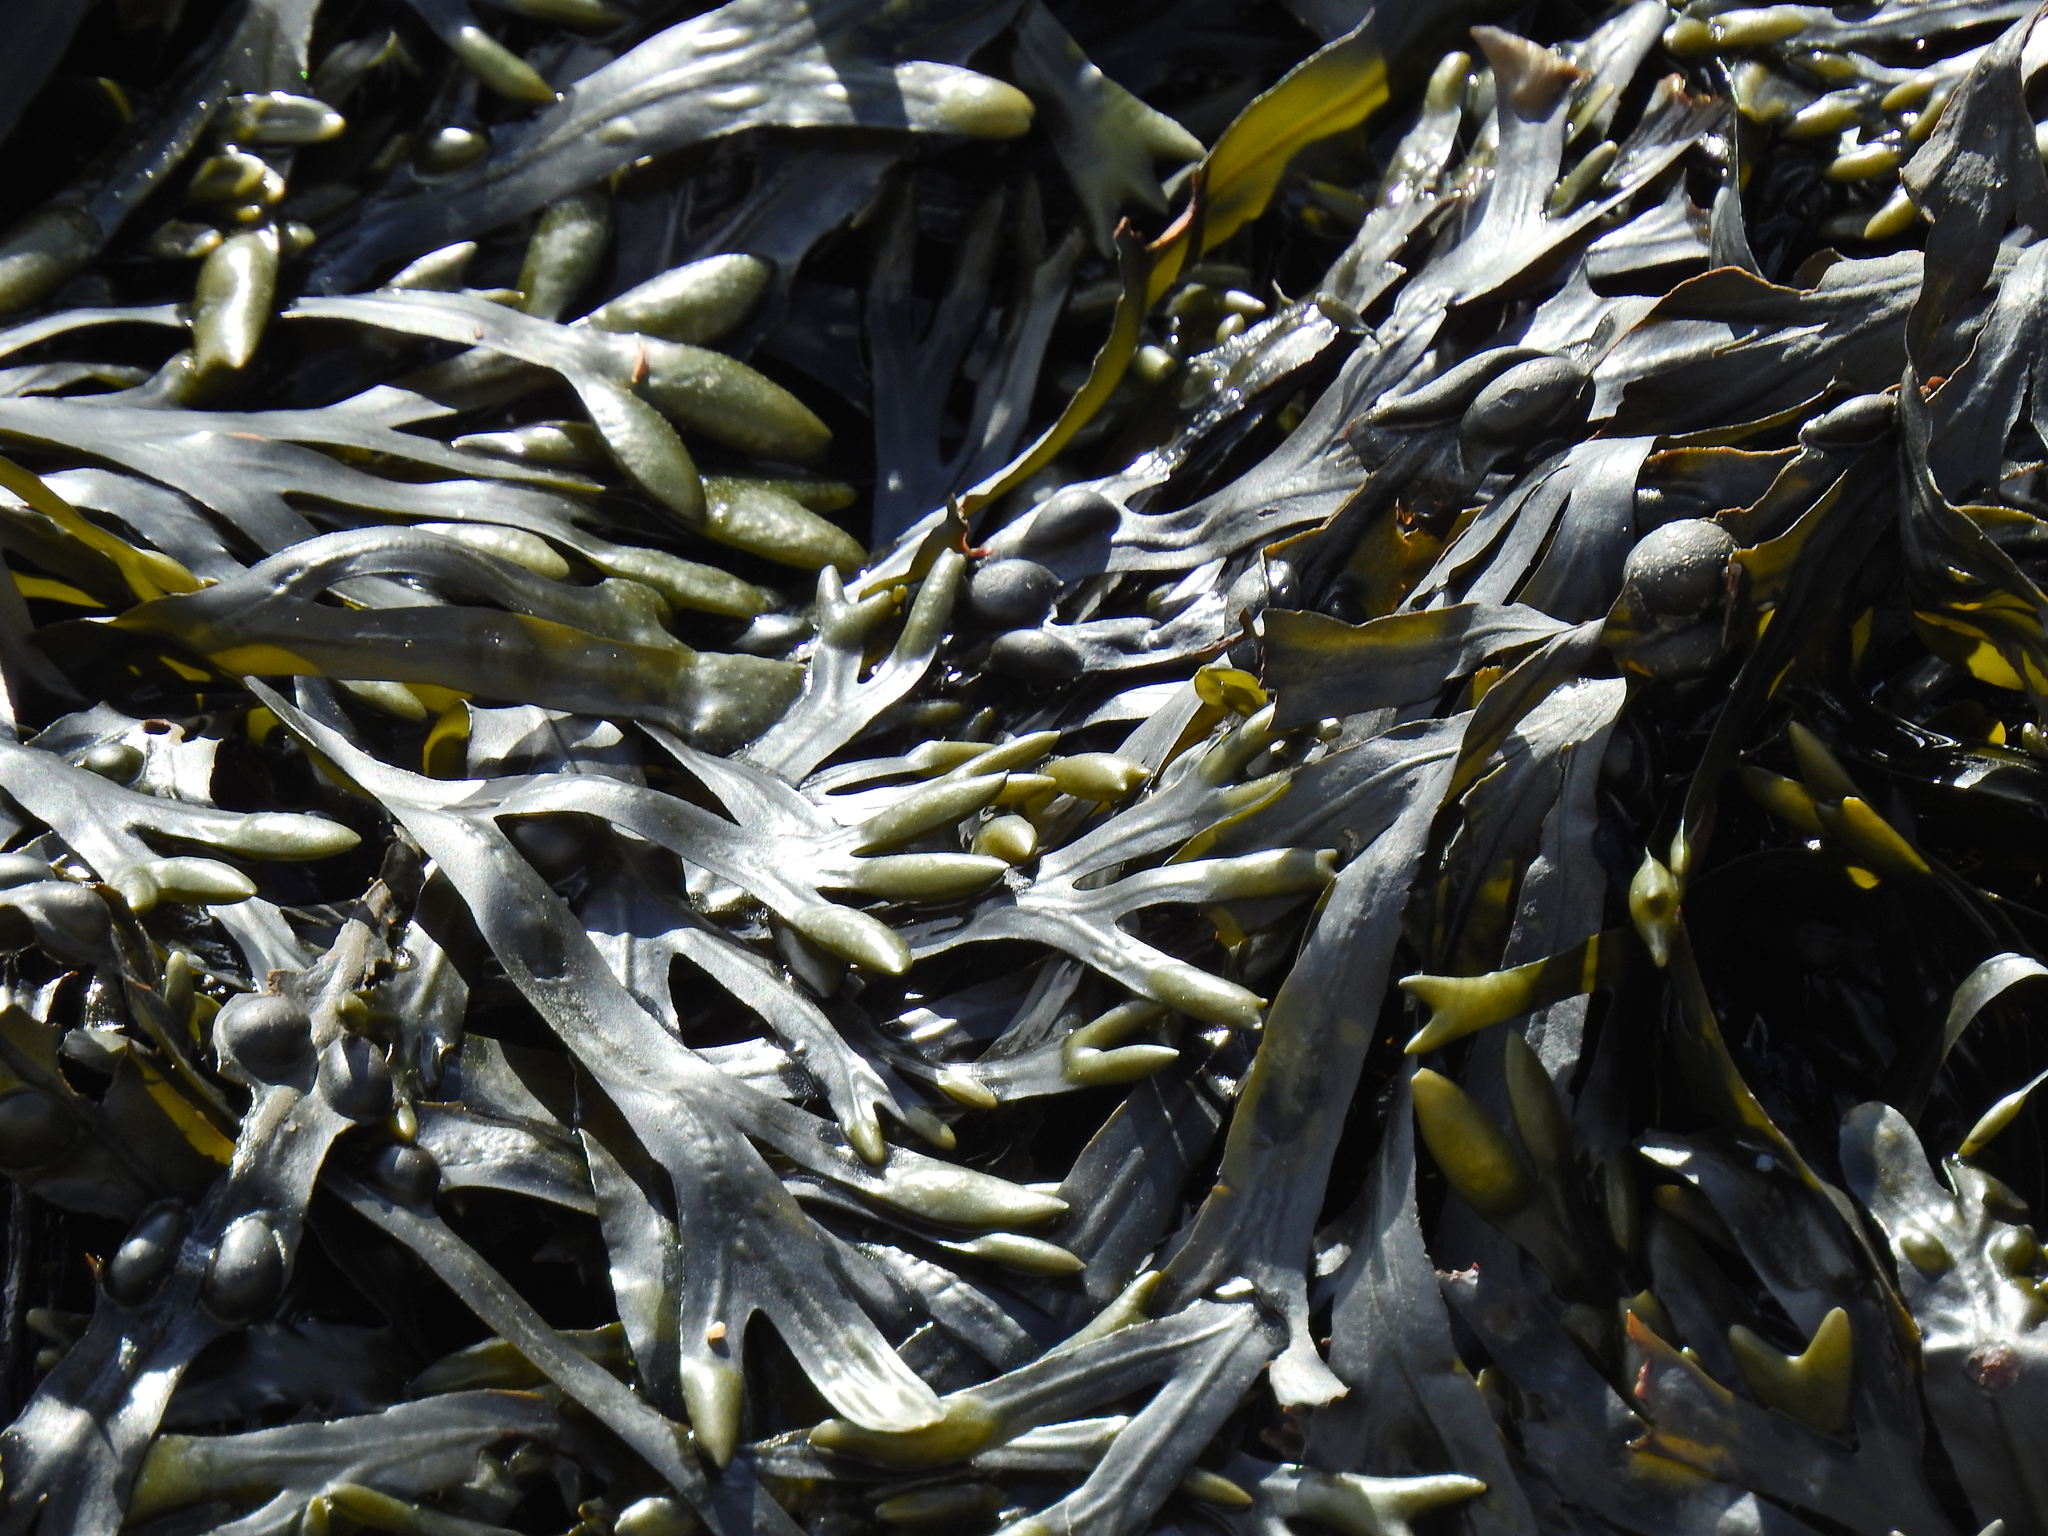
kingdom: Chromista
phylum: Ochrophyta
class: Phaeophyceae
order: Fucales
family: Fucaceae
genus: Fucus
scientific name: Fucus vesiculosus
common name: Bladder wrack
